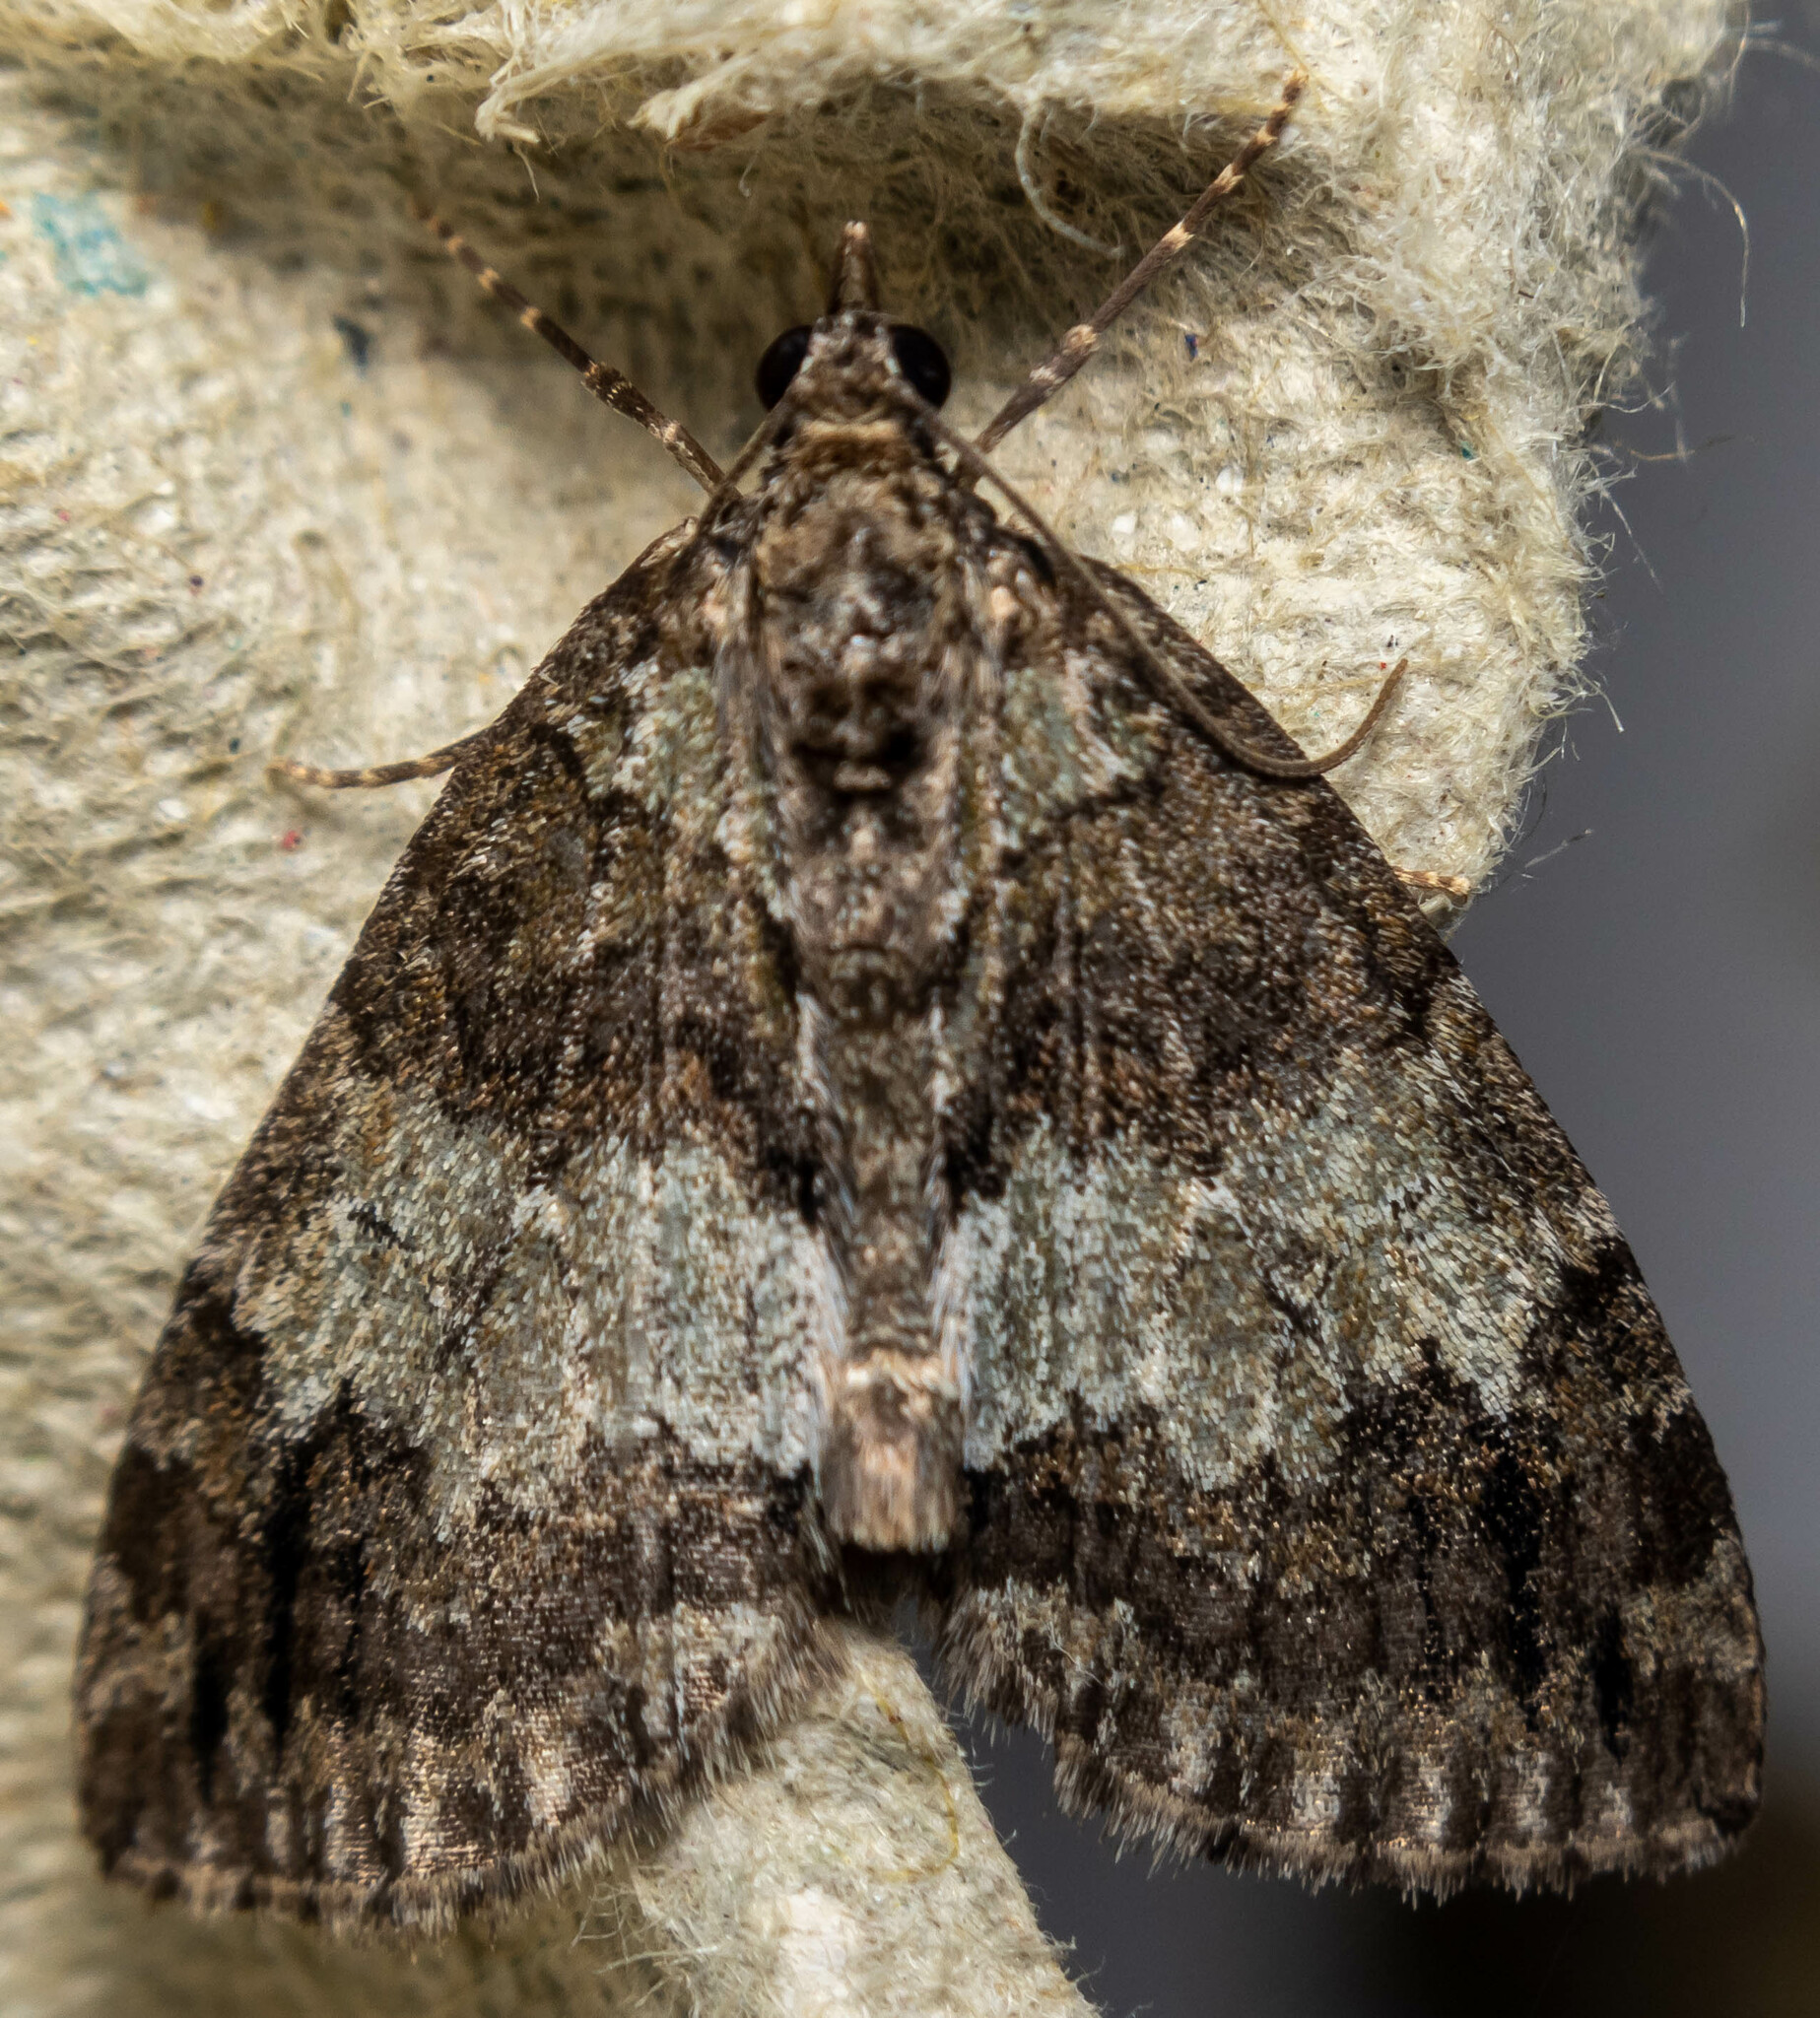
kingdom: Animalia
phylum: Arthropoda
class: Insecta
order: Lepidoptera
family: Geometridae
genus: Hydriomena
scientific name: Hydriomena impluviata
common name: May highflyer
